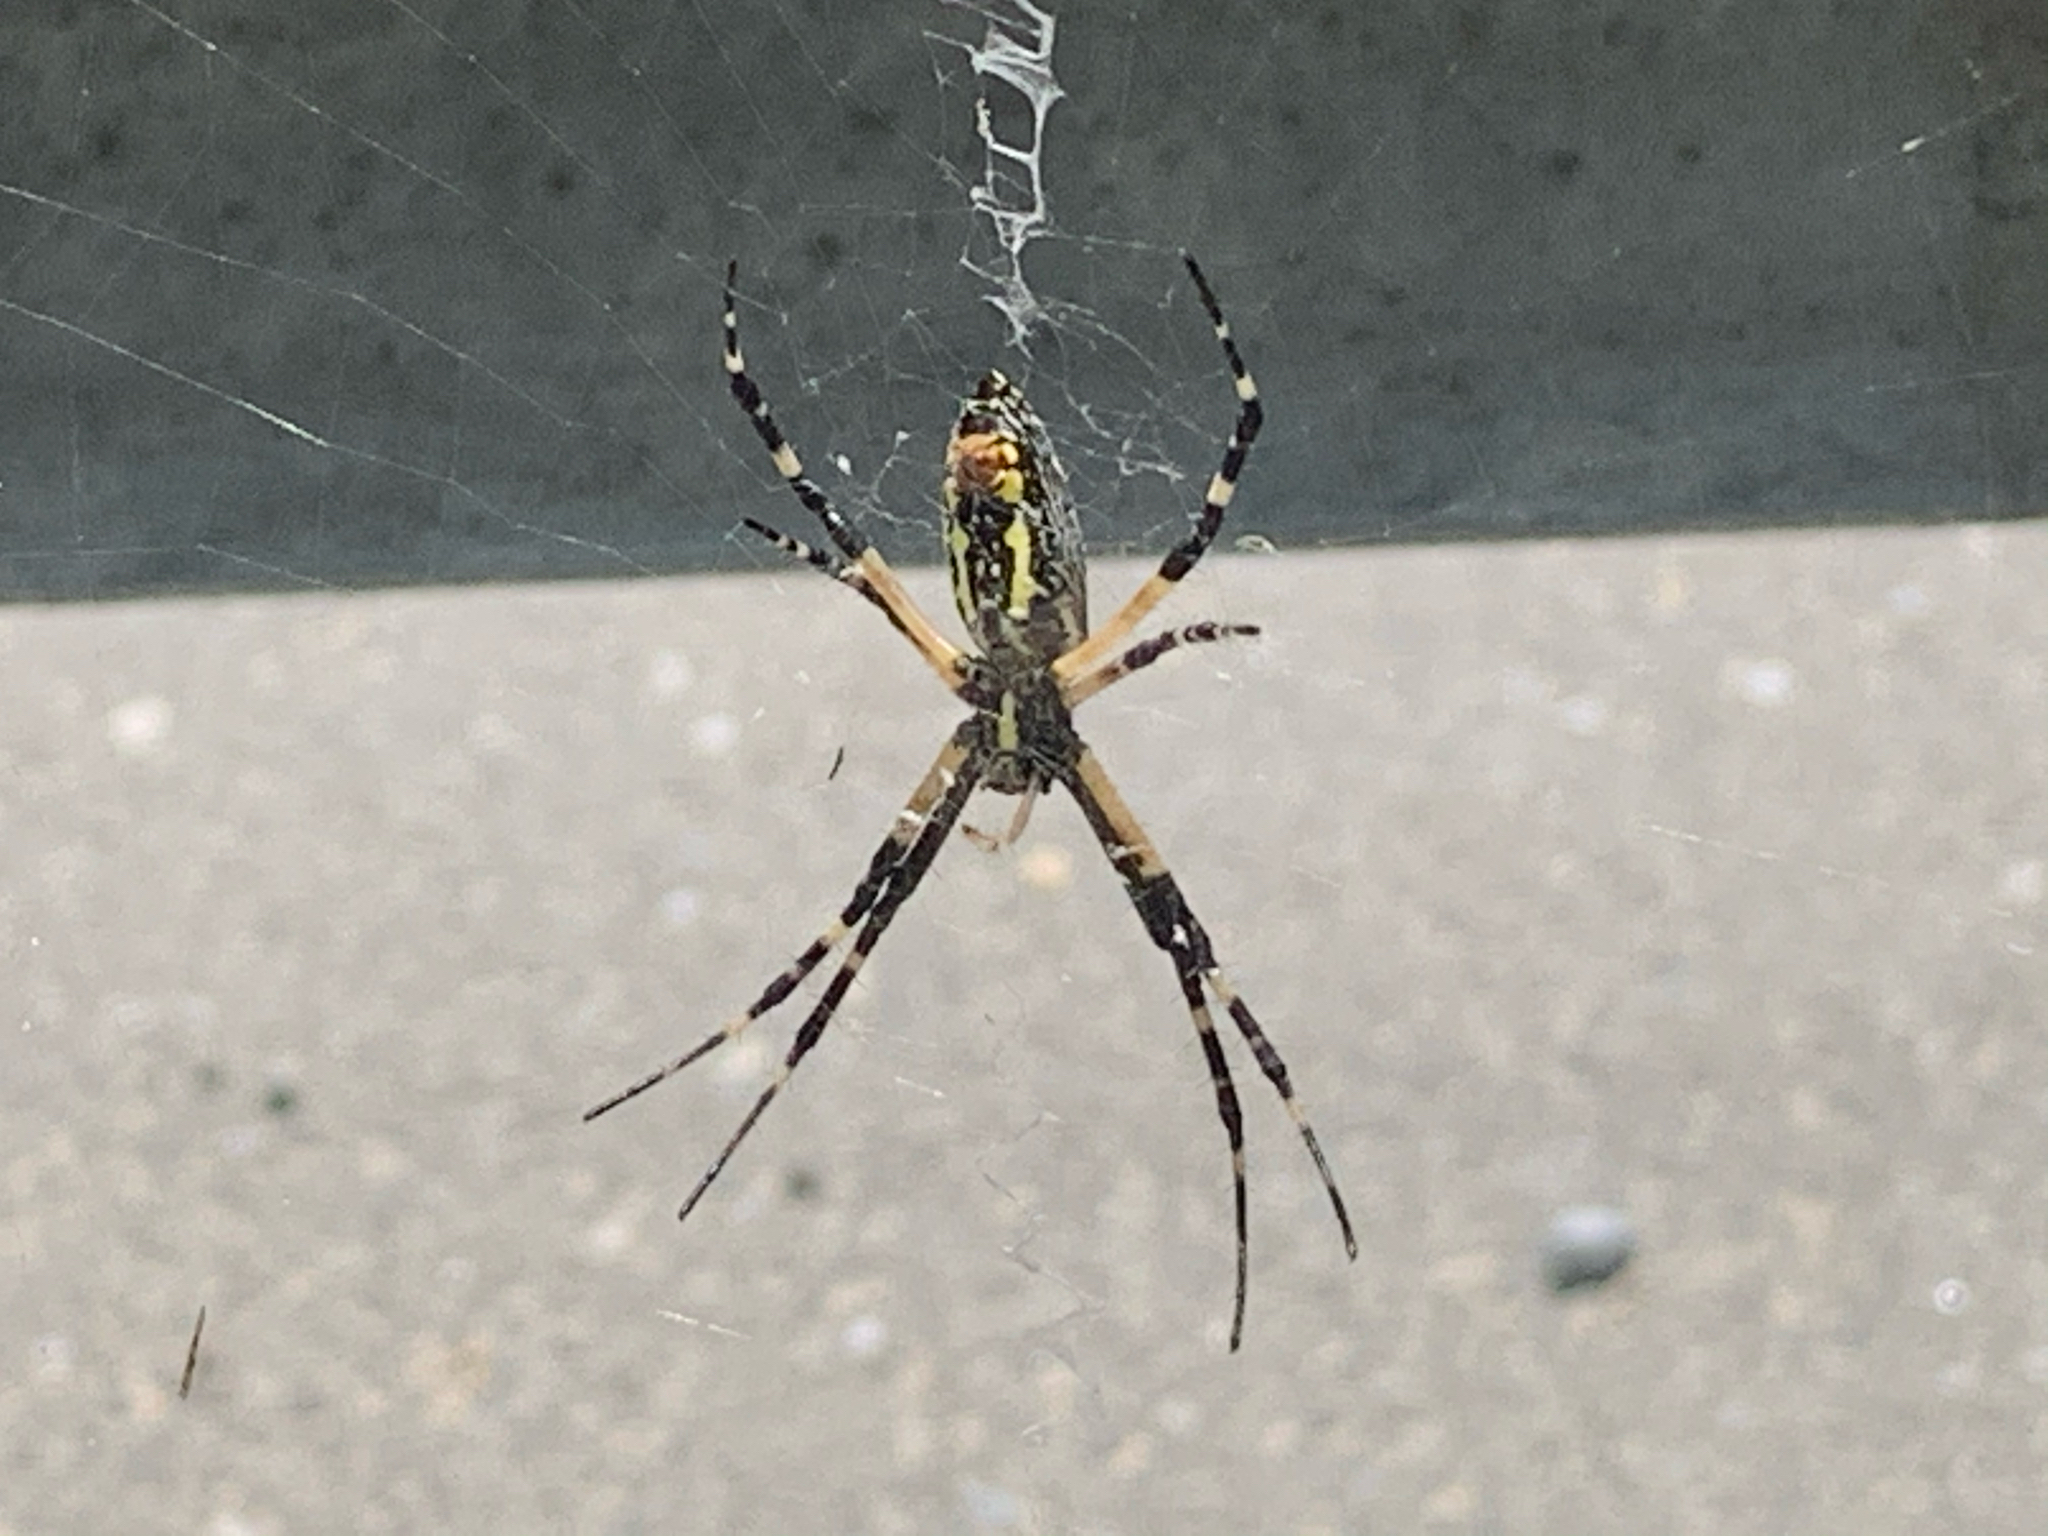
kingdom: Animalia
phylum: Arthropoda
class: Arachnida
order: Araneae
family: Araneidae
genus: Argiope
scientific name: Argiope aurantia
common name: Orb weavers
